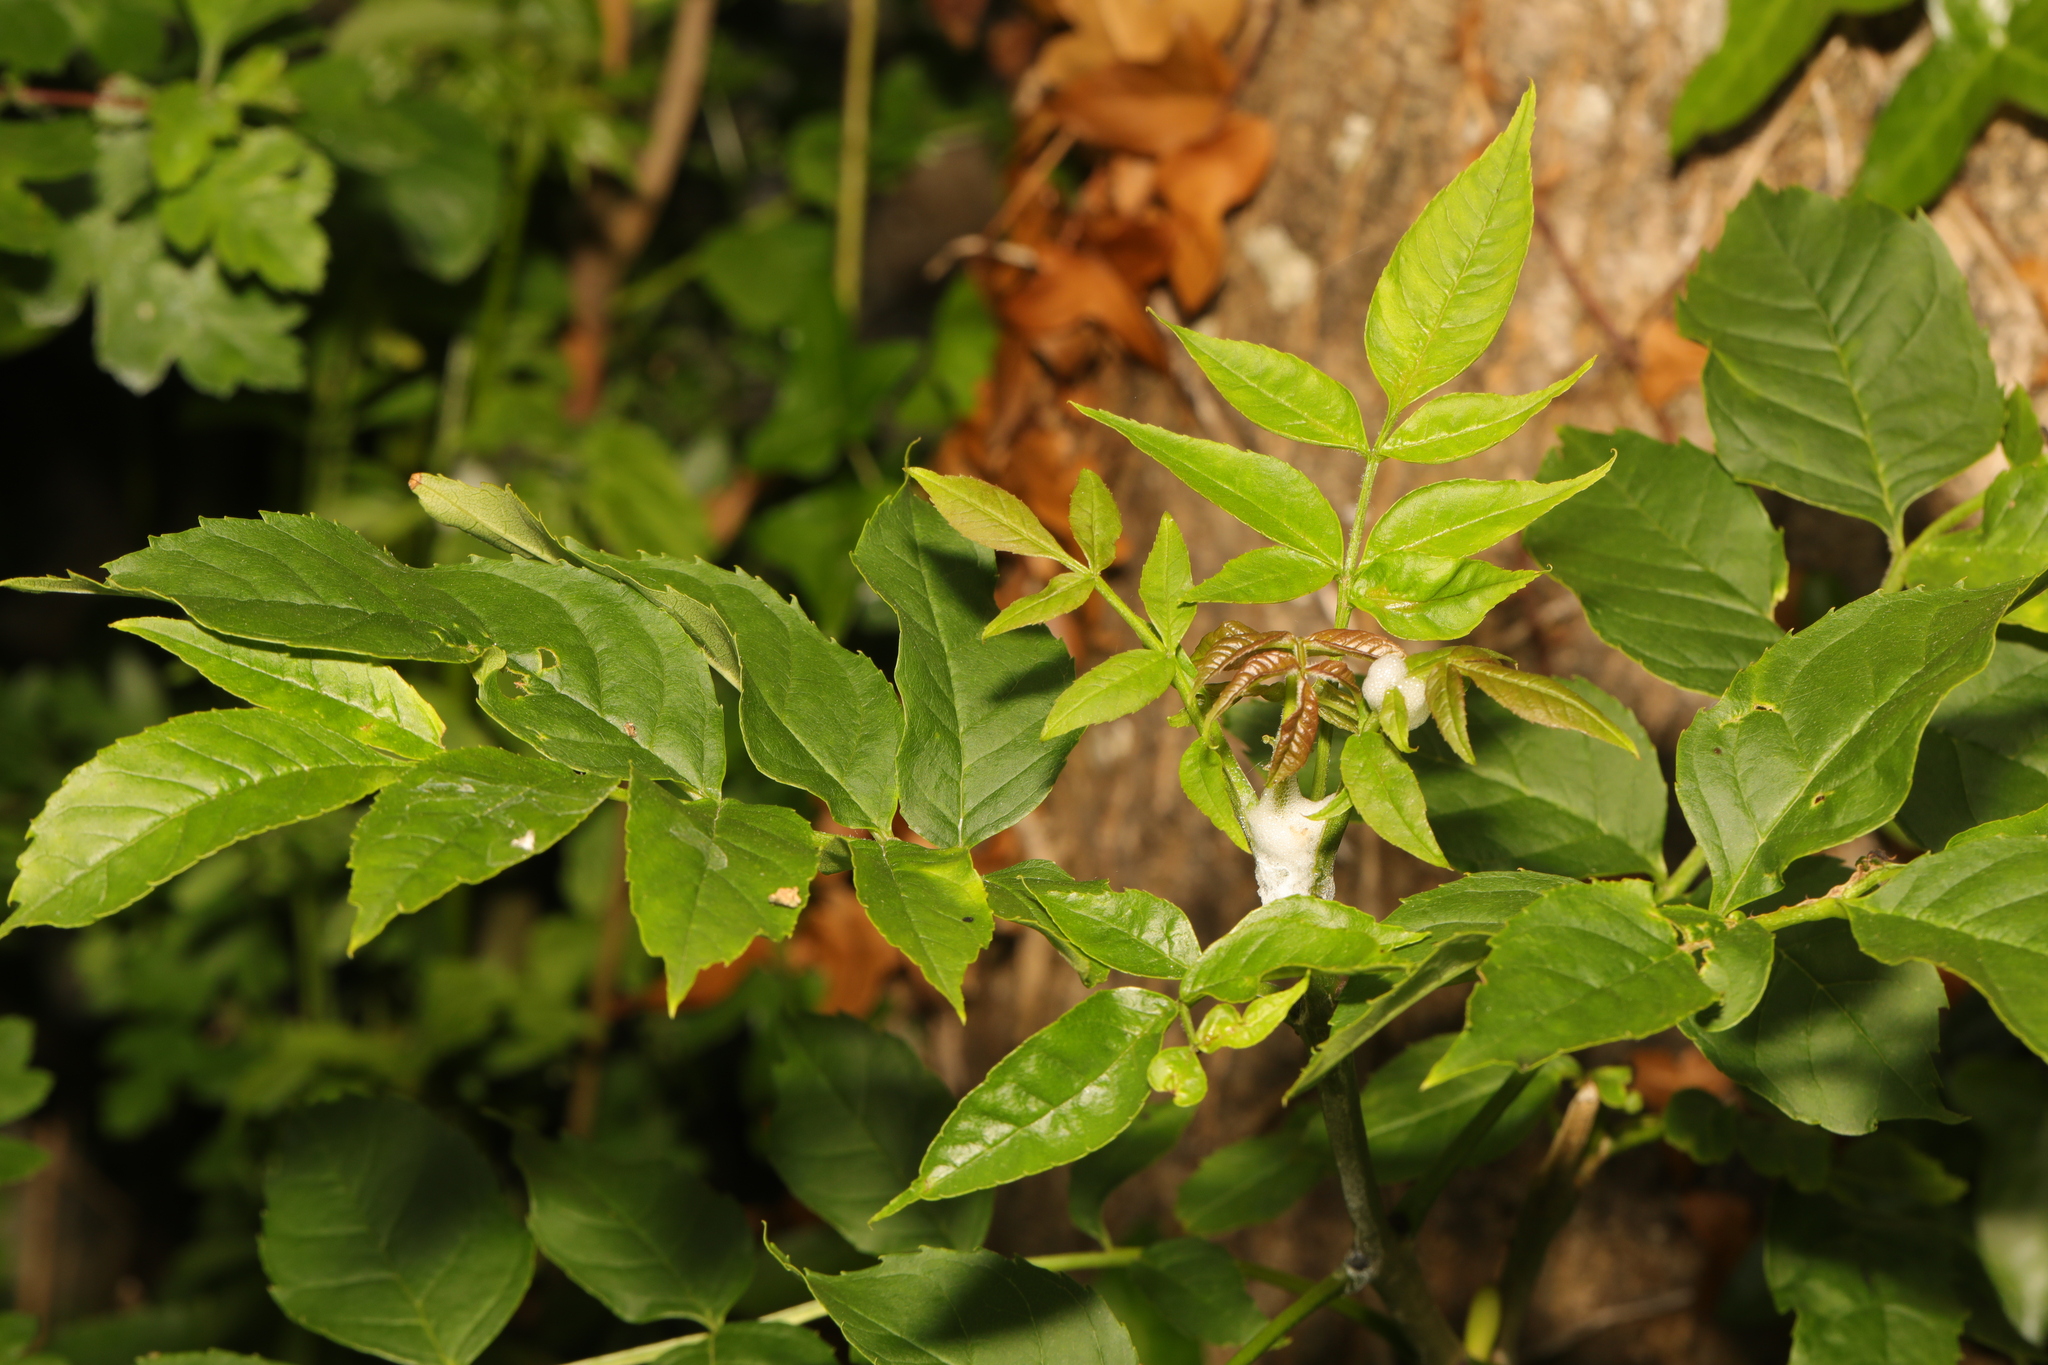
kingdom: Plantae
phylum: Tracheophyta
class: Magnoliopsida
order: Lamiales
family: Oleaceae
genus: Fraxinus
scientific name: Fraxinus excelsior
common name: European ash
